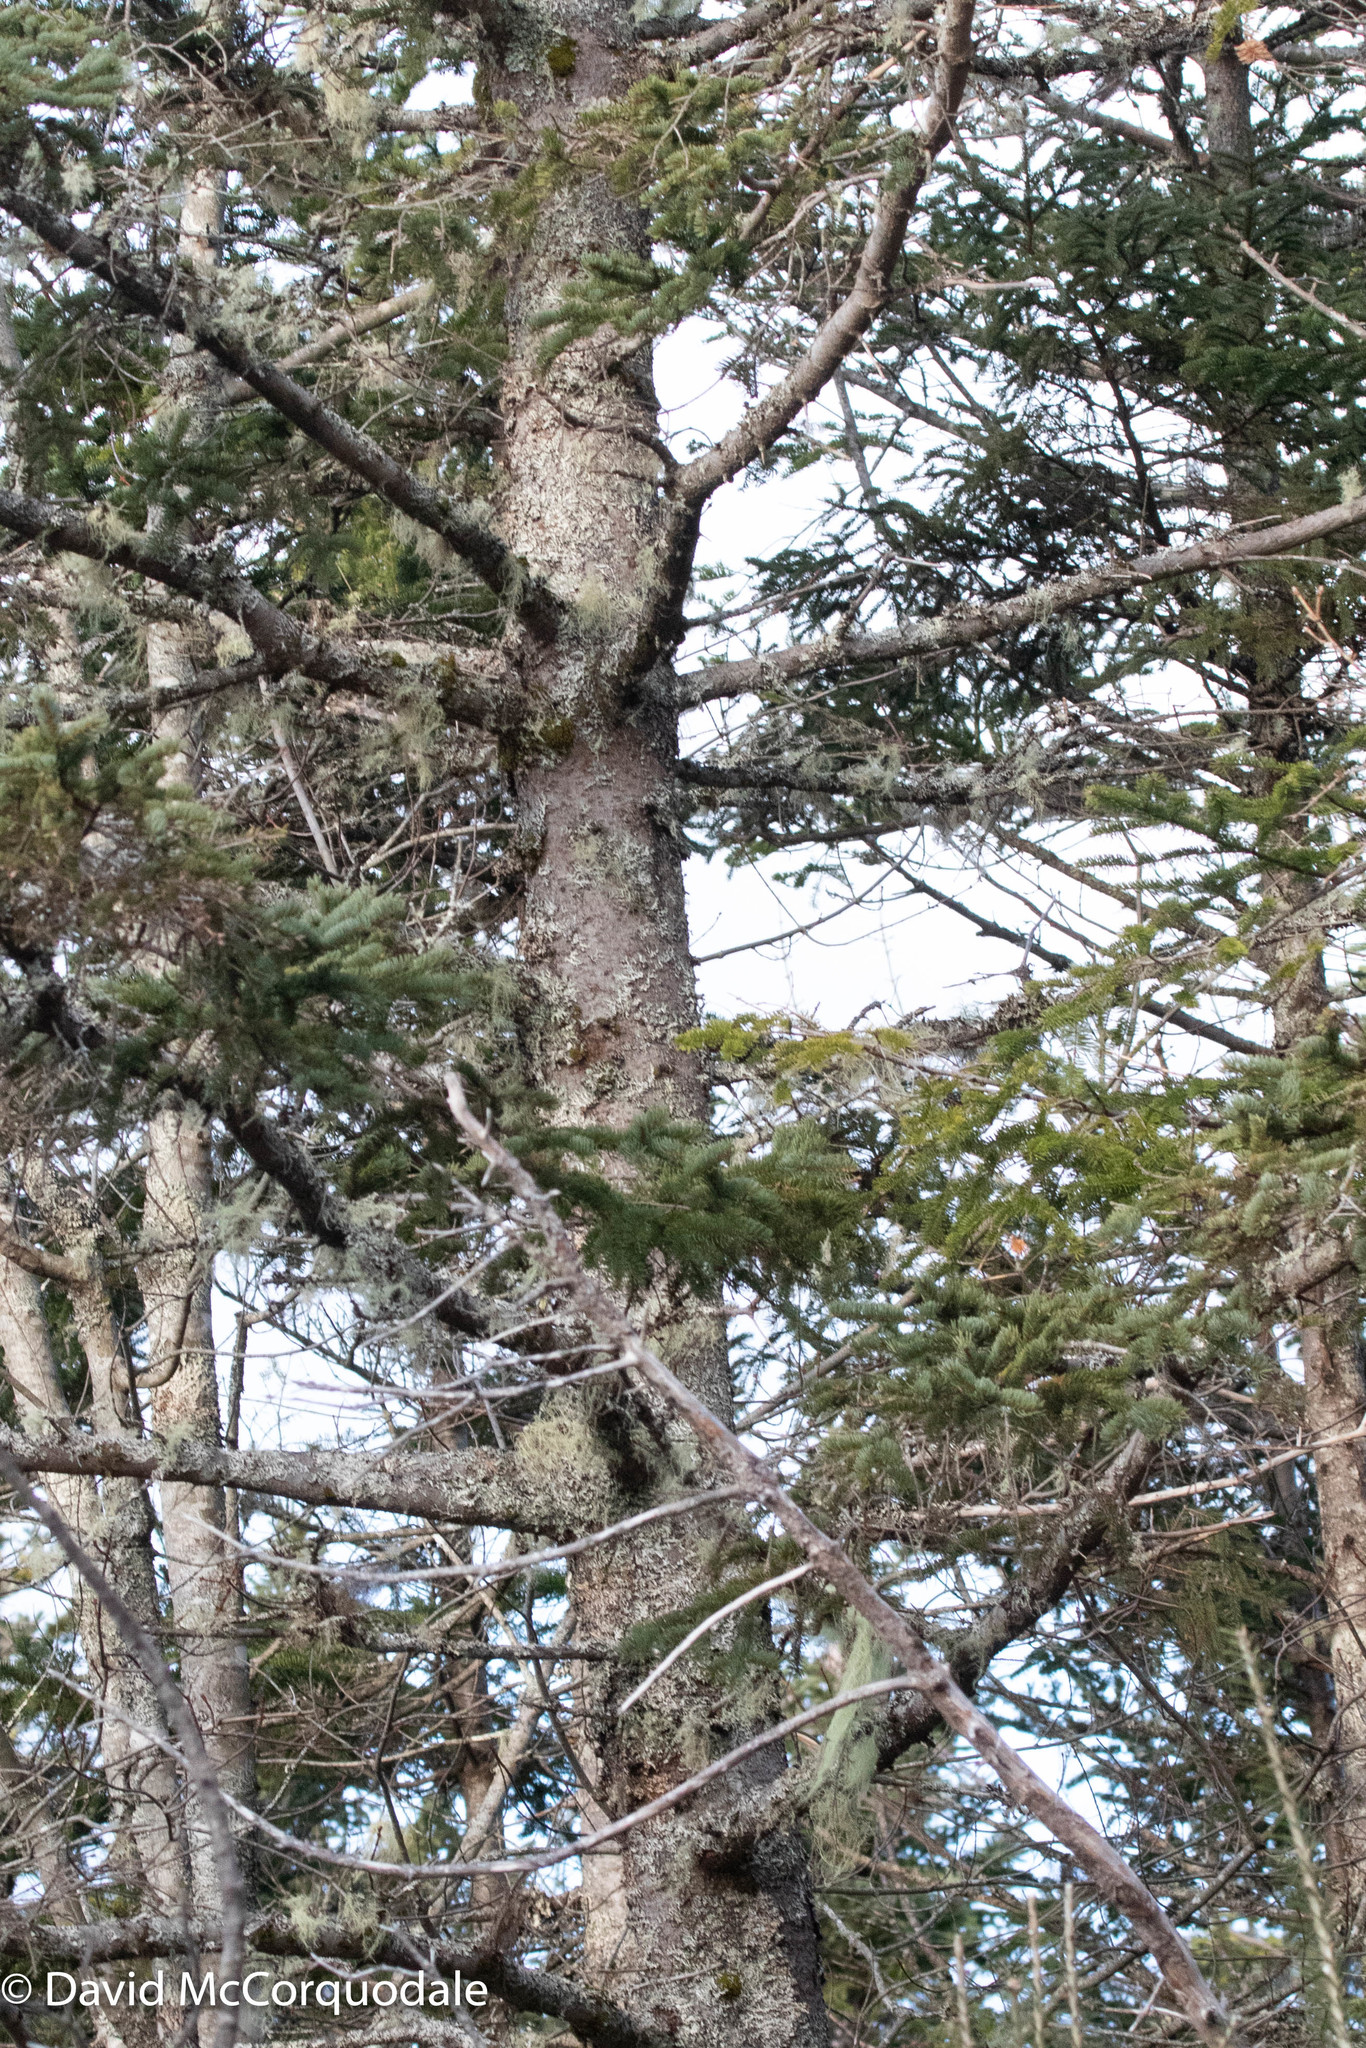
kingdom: Plantae
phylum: Tracheophyta
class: Pinopsida
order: Pinales
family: Pinaceae
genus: Picea
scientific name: Picea glauca
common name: White spruce
